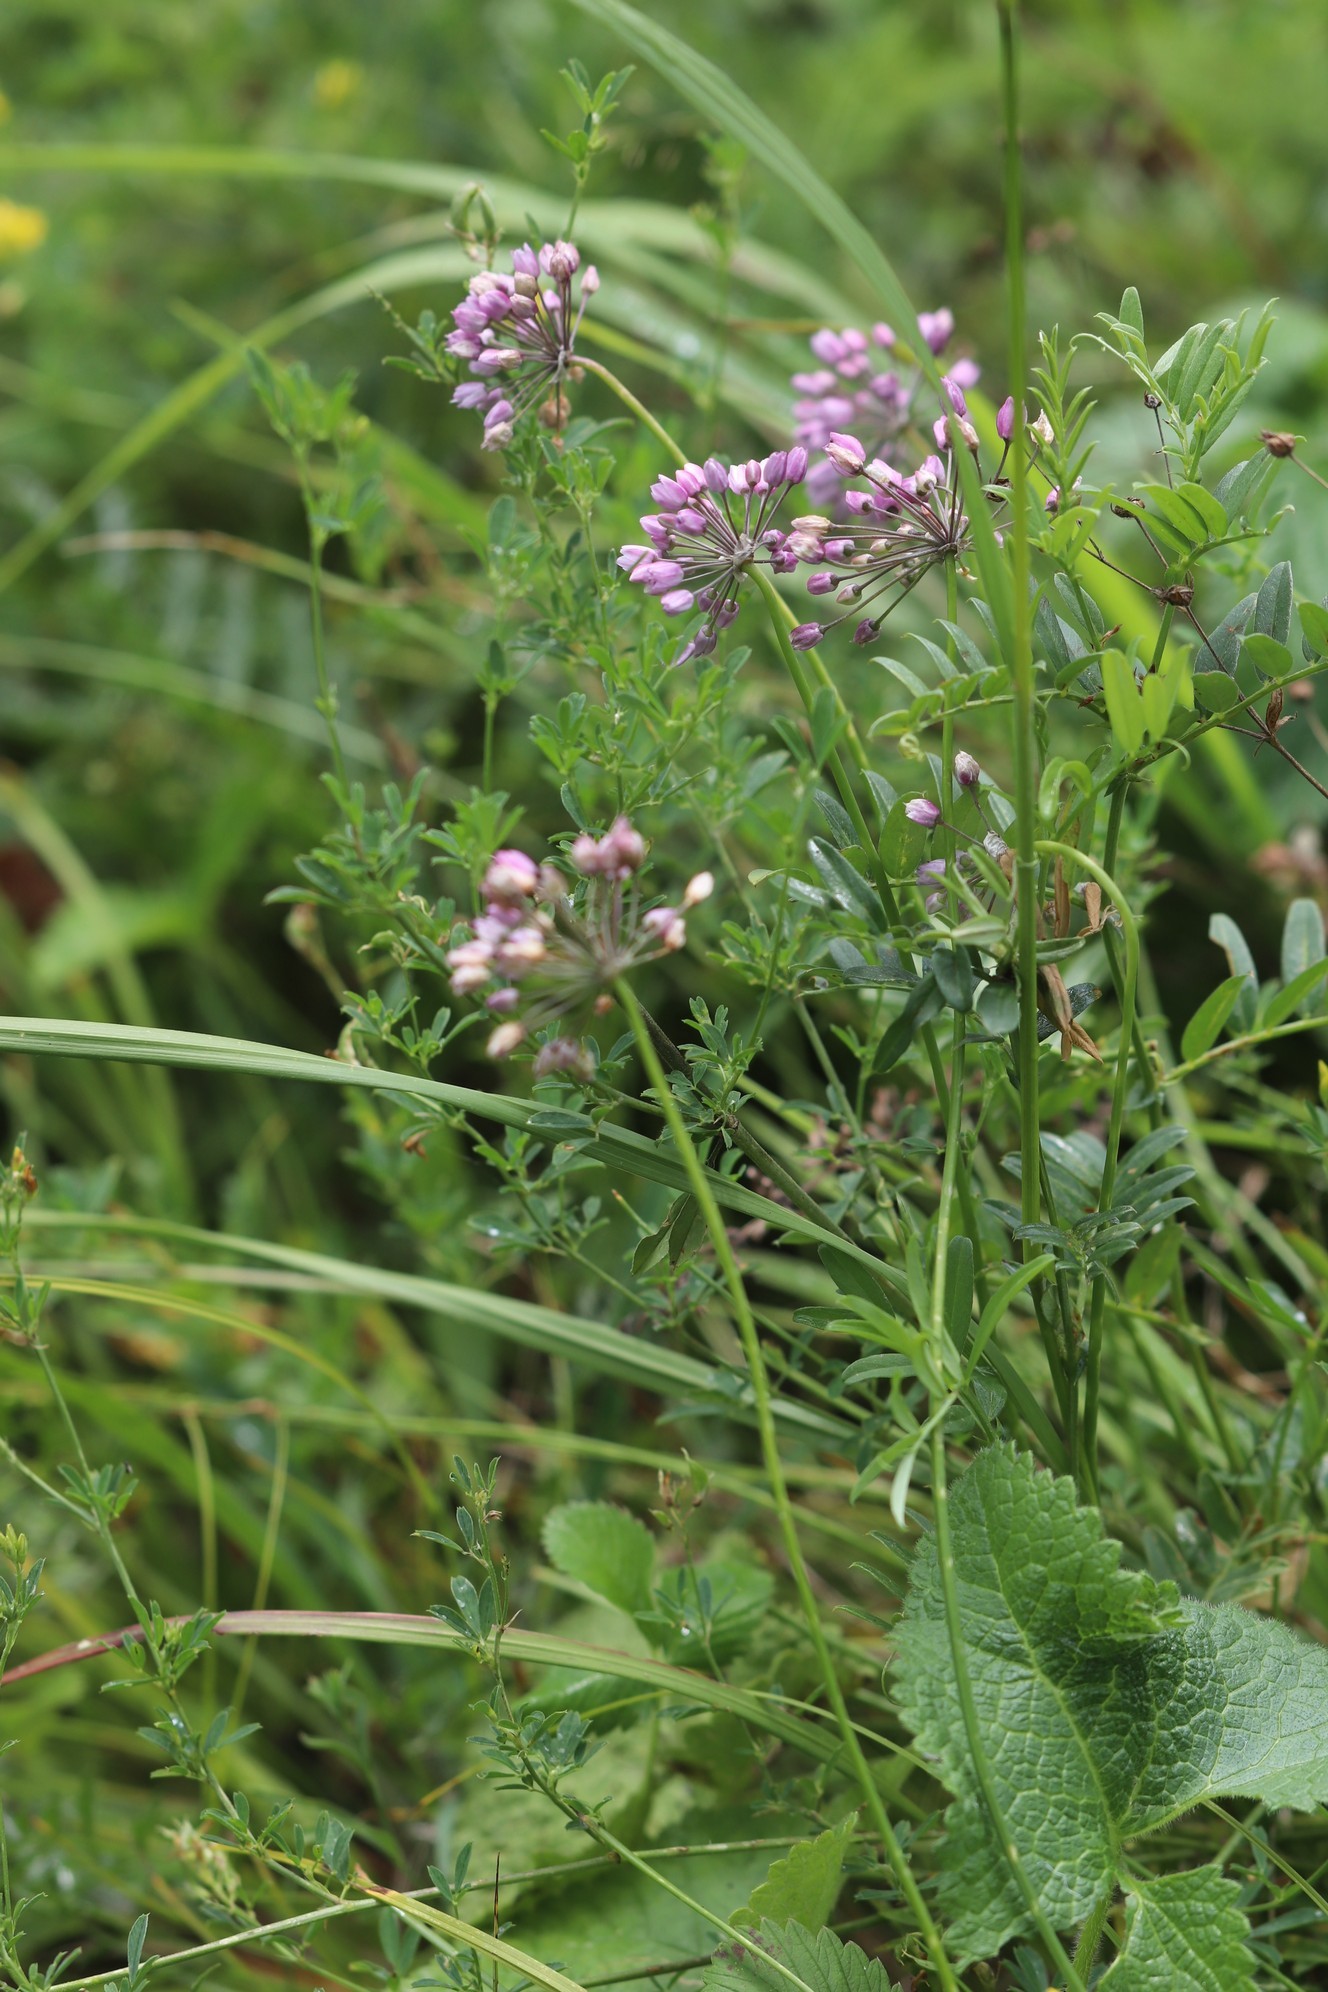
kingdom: Plantae
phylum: Tracheophyta
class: Liliopsida
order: Asparagales
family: Amaryllidaceae
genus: Allium
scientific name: Allium rubens
